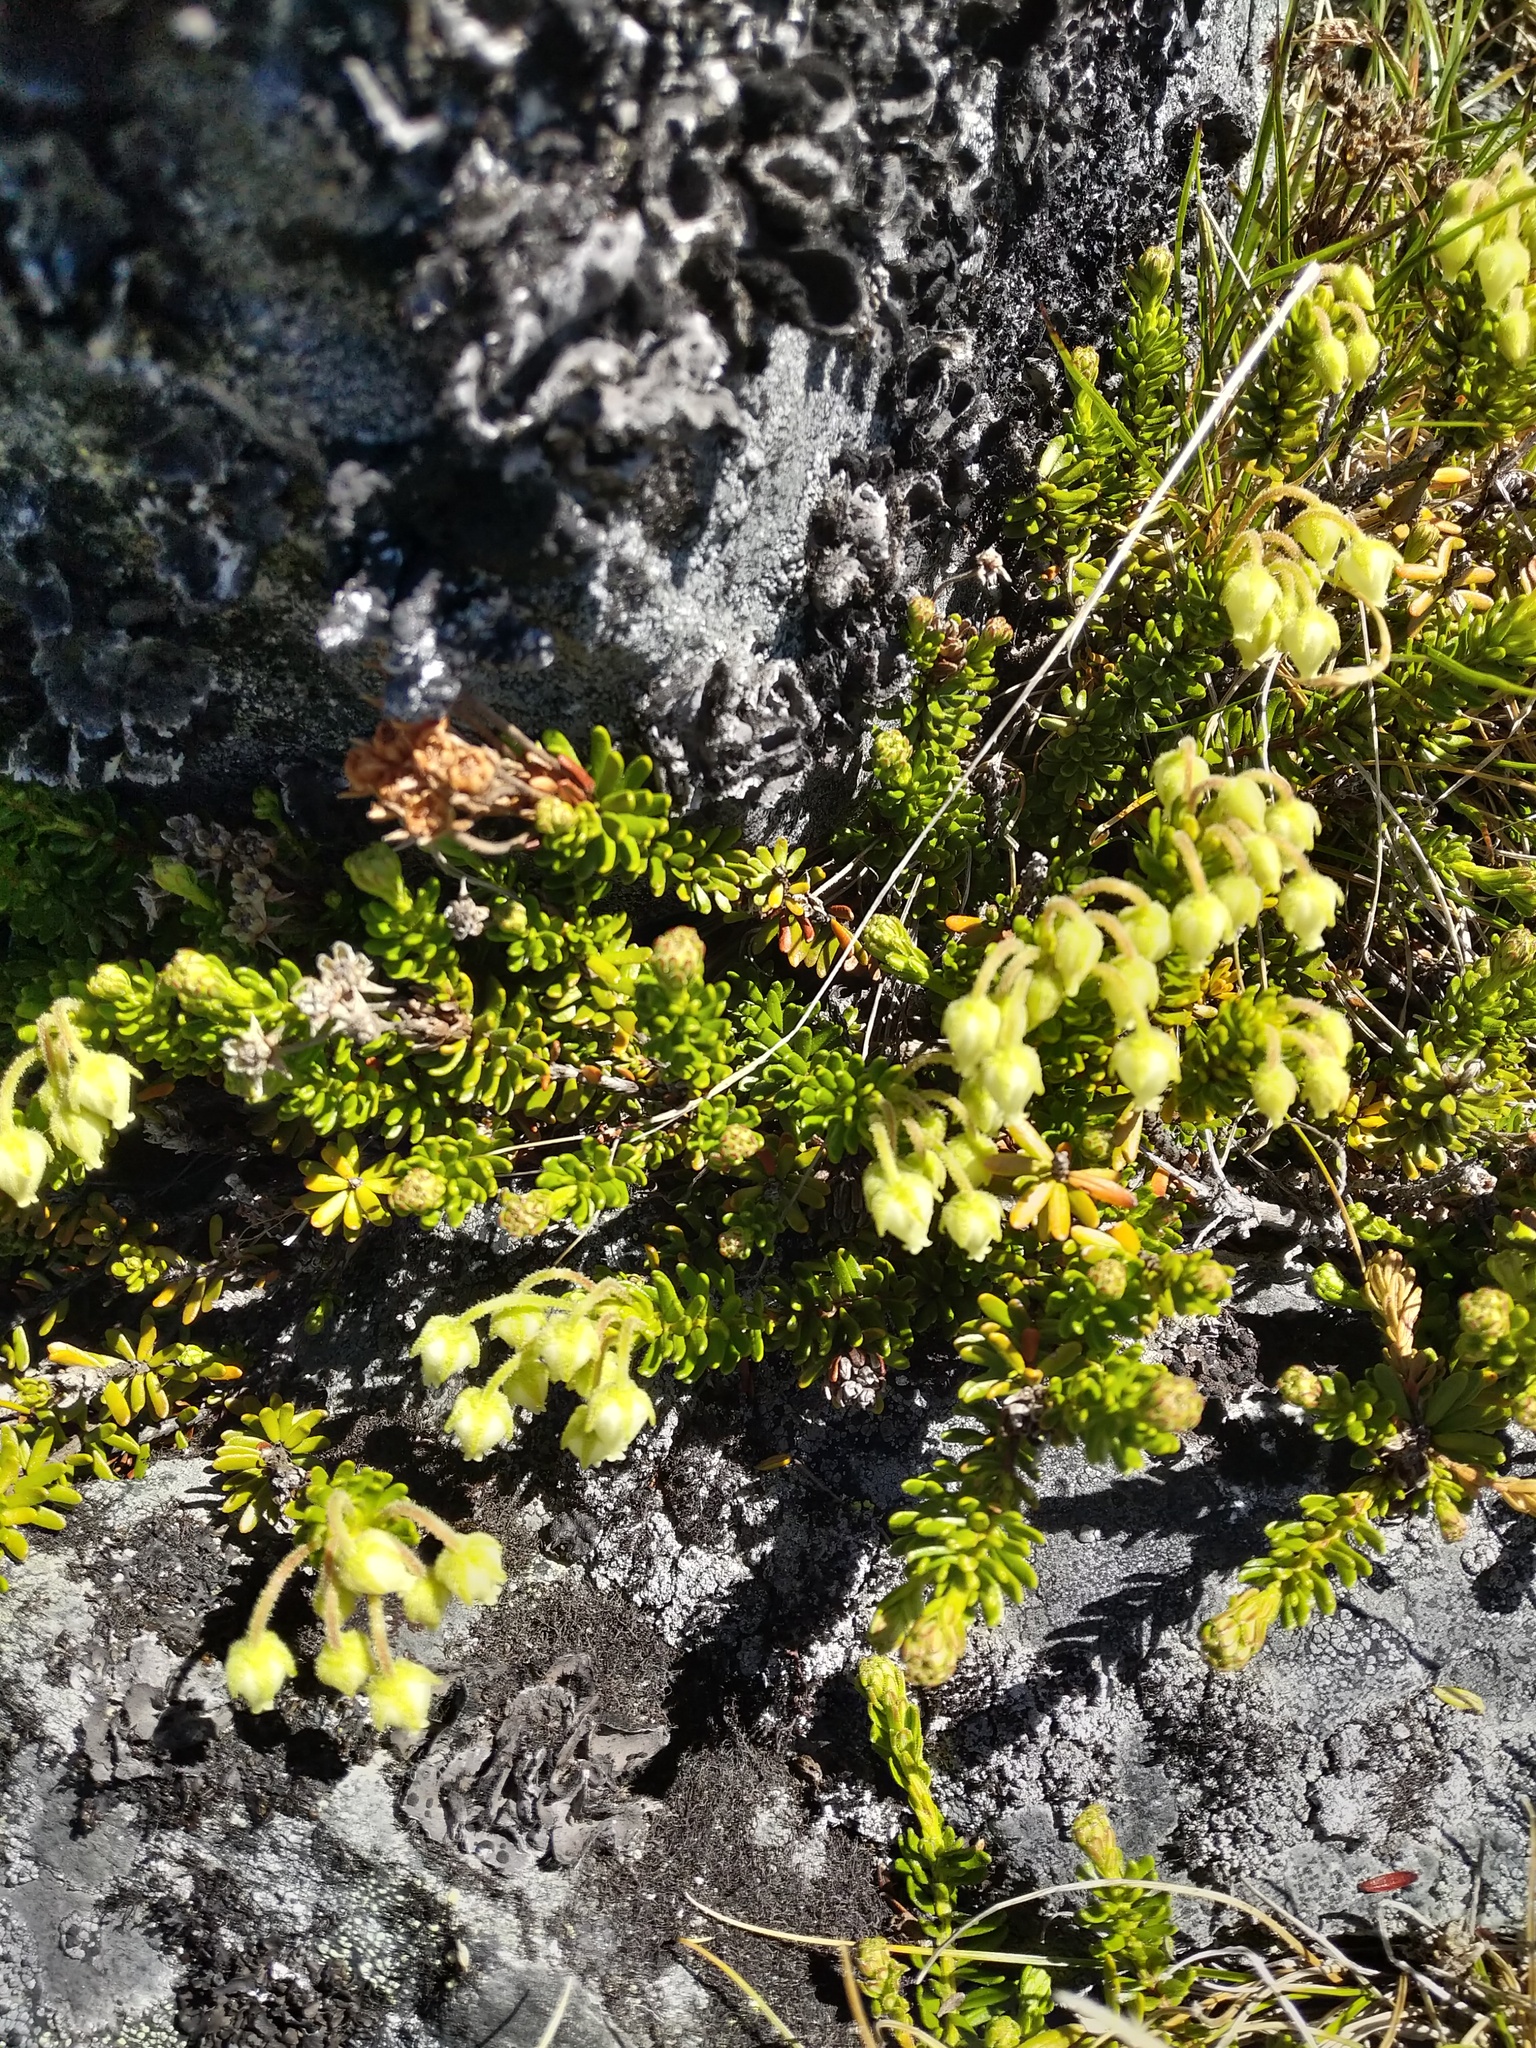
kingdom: Plantae
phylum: Tracheophyta
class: Magnoliopsida
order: Ericales
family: Ericaceae
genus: Phyllodoce
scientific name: Phyllodoce glanduliflora
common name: Cream mountain heather
